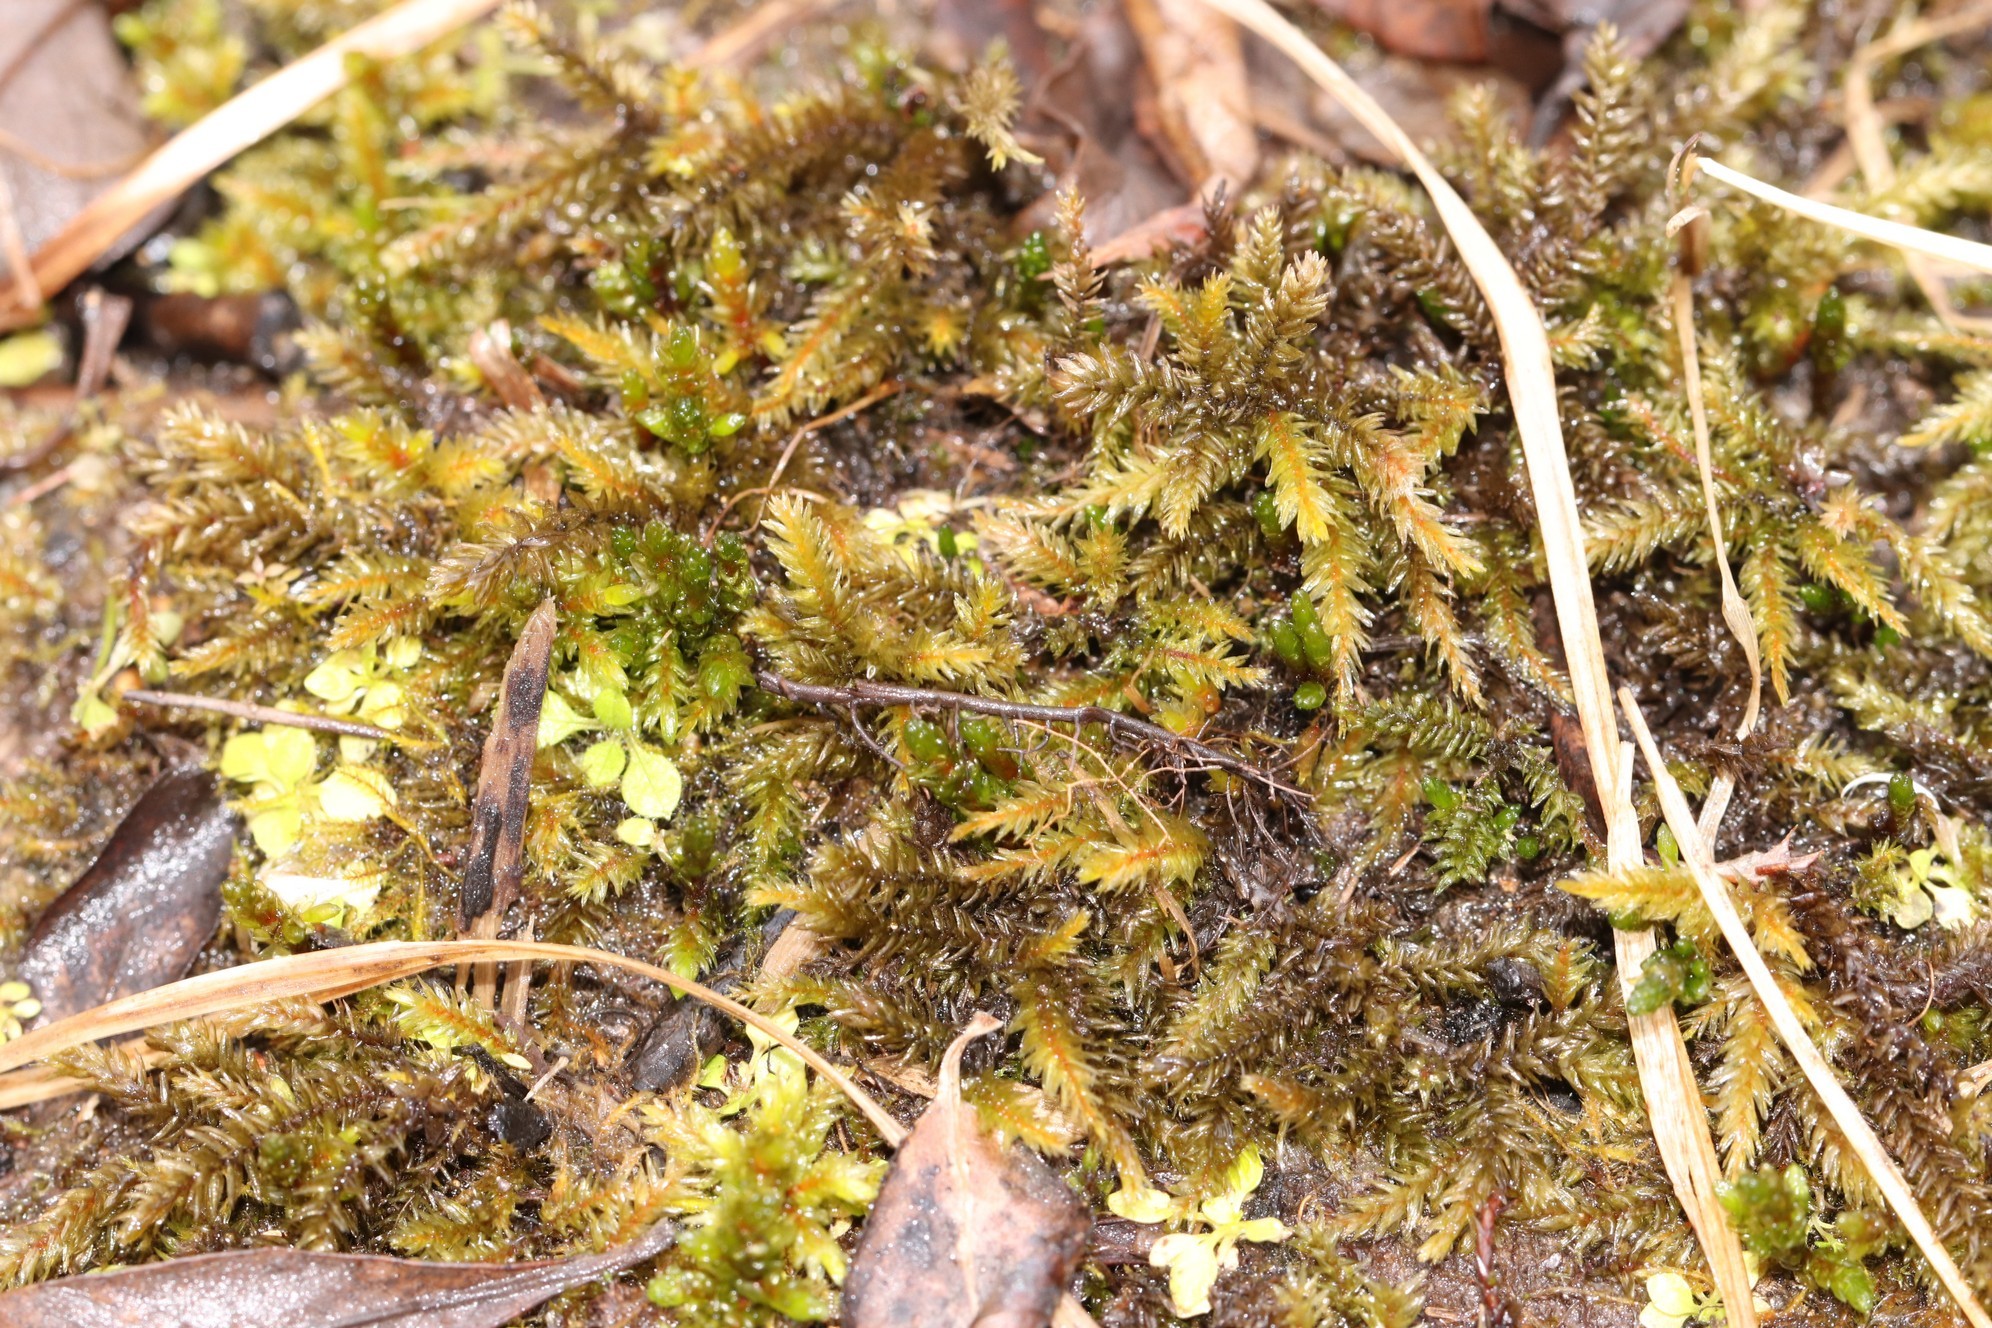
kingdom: Plantae
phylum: Bryophyta
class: Bryopsida
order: Hypnales
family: Climaciaceae
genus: Climacium
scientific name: Climacium dendroides
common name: Northern tree moss
